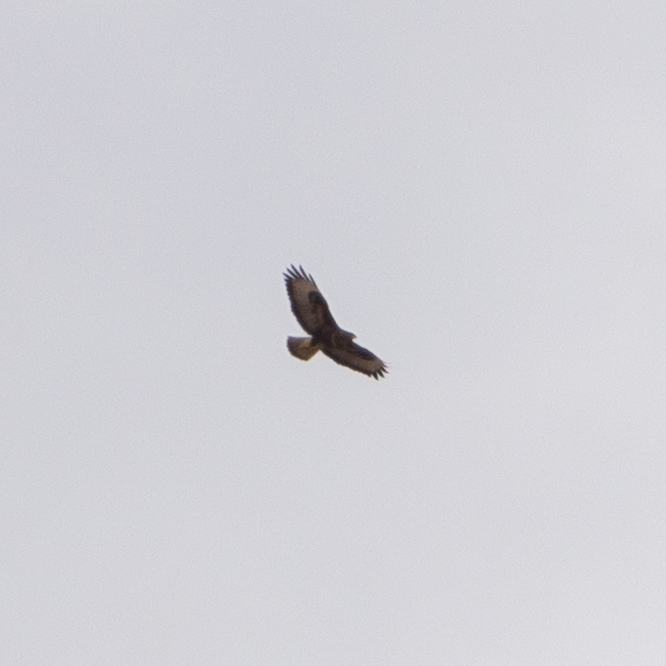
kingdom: Animalia
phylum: Chordata
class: Aves
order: Accipitriformes
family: Accipitridae
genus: Buteo
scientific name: Buteo buteo
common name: Common buzzard
